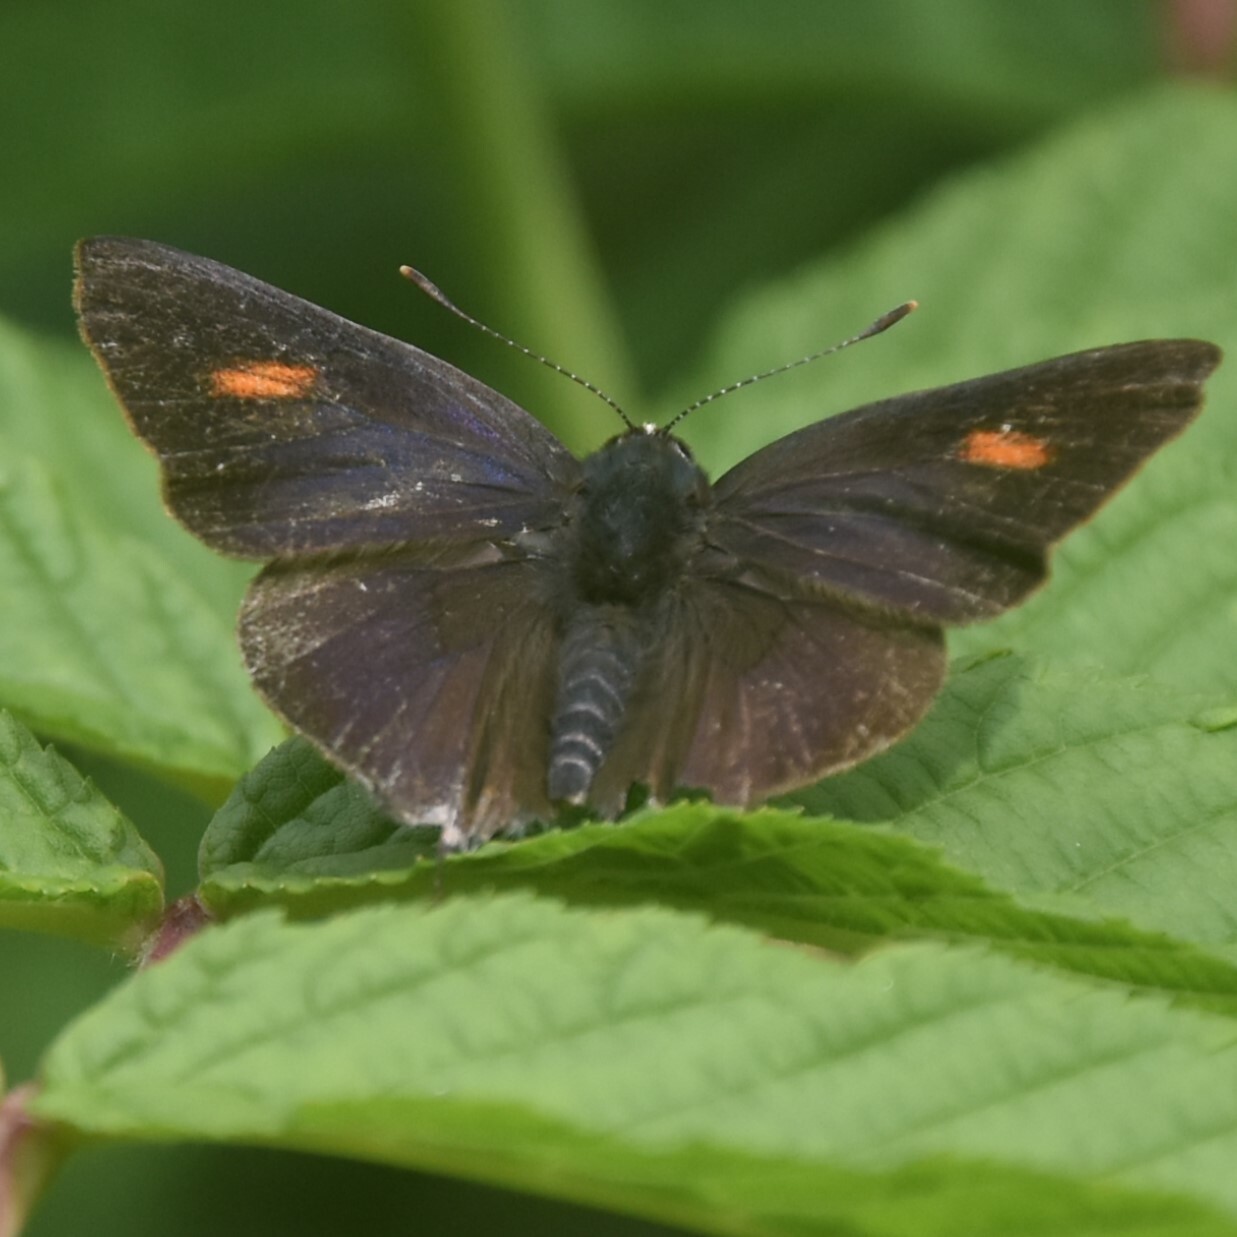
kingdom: Animalia
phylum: Arthropoda
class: Insecta
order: Lepidoptera
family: Lycaenidae
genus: Rapala
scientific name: Rapala nissa
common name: Common flash
